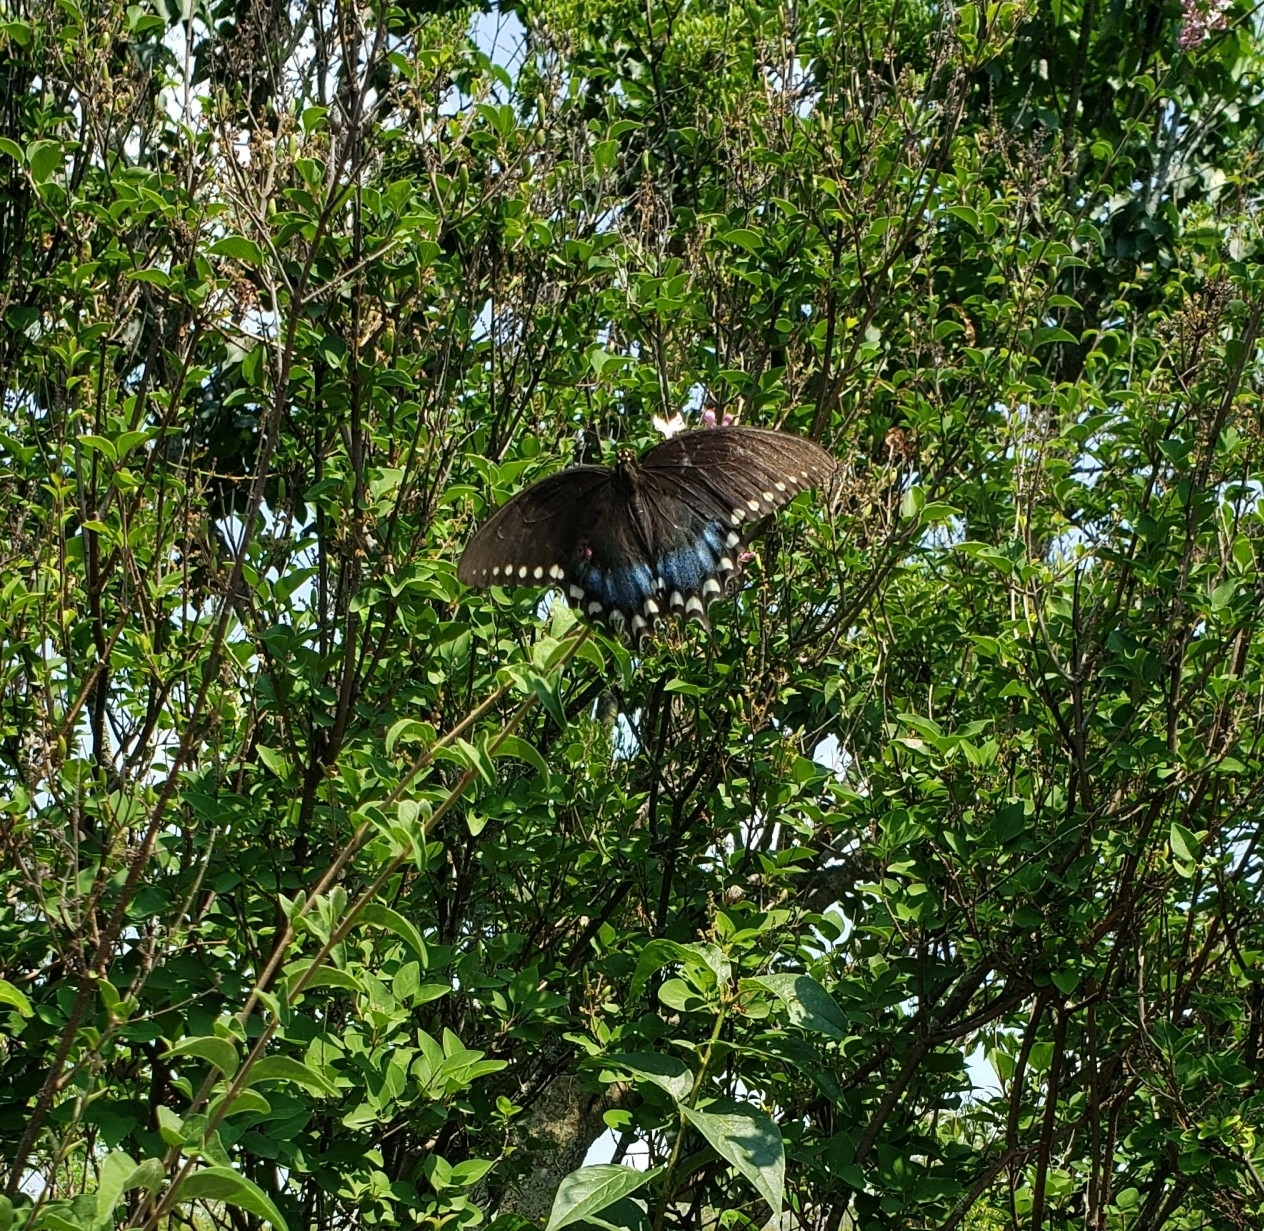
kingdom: Animalia
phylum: Arthropoda
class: Insecta
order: Lepidoptera
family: Papilionidae
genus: Papilio
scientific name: Papilio troilus
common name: Spicebush swallowtail
